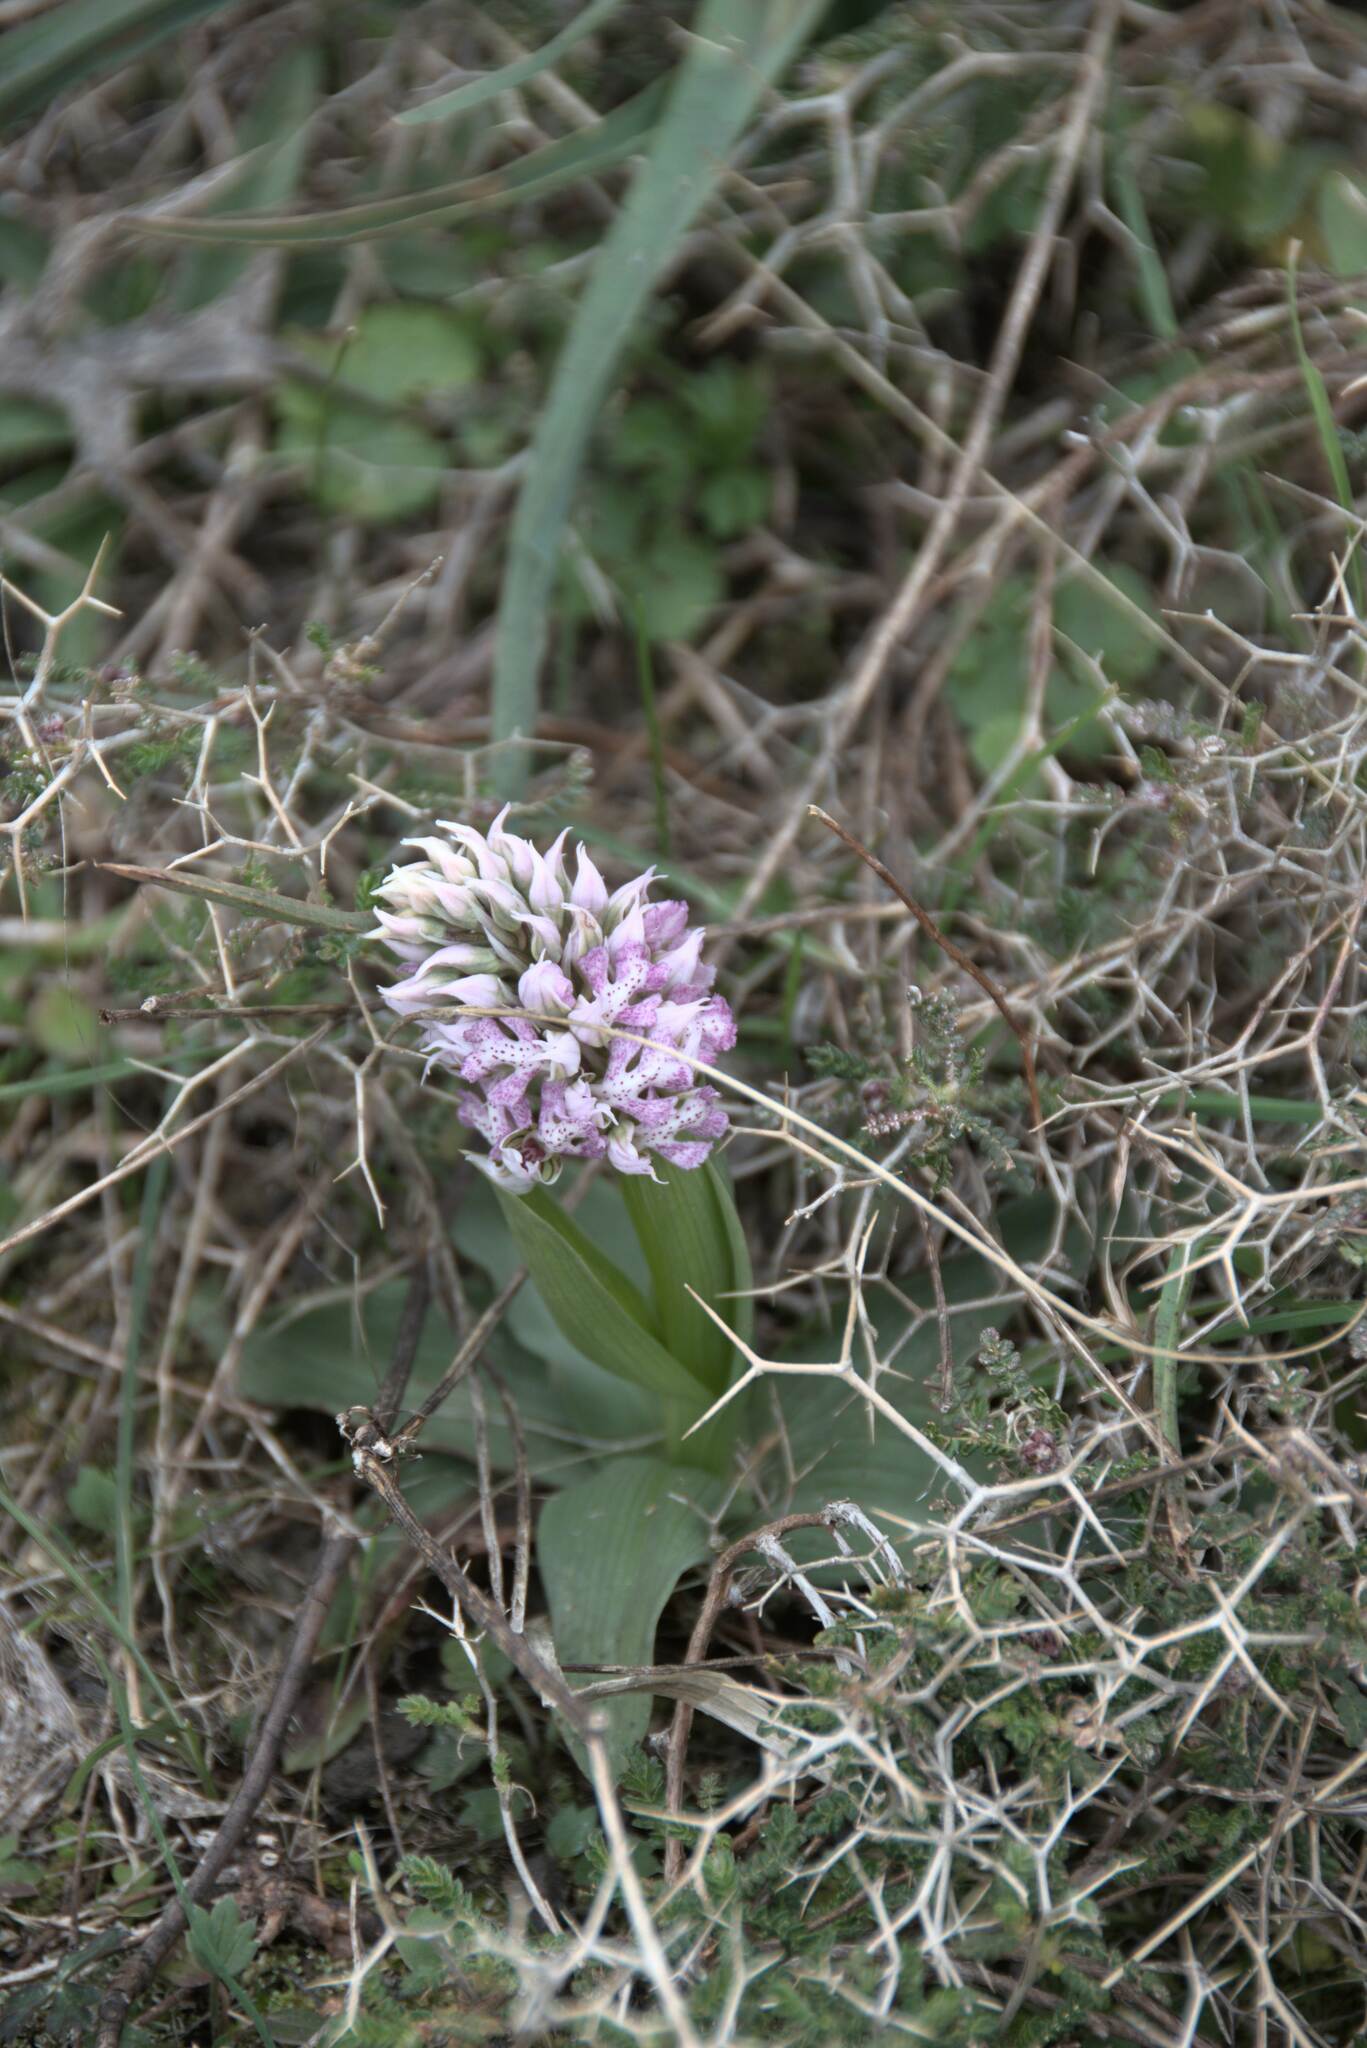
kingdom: Plantae
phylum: Tracheophyta
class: Liliopsida
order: Asparagales
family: Orchidaceae
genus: Neotinea
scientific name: Neotinea lactea
